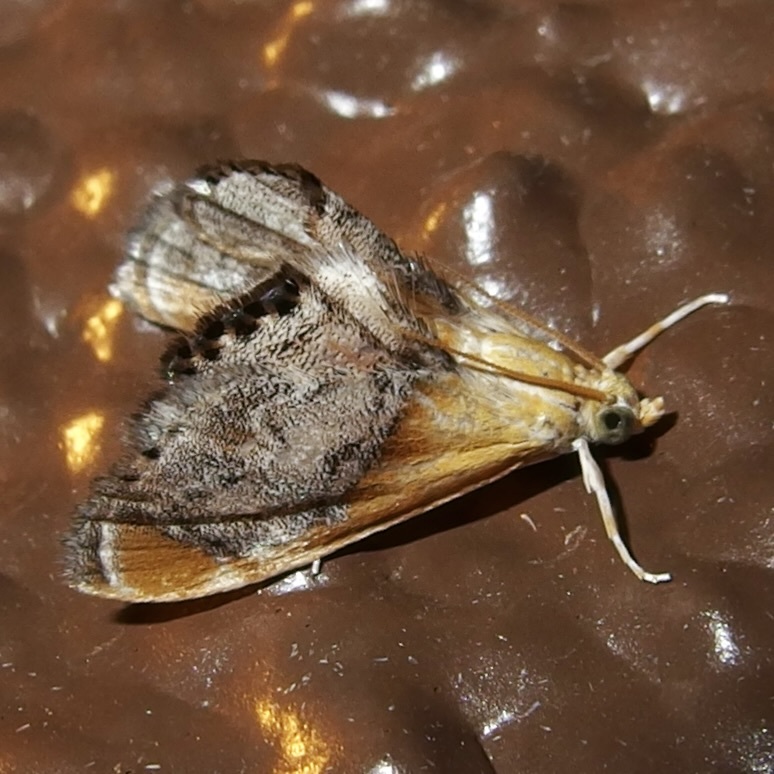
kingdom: Animalia
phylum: Arthropoda
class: Insecta
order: Lepidoptera
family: Crambidae
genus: Chalcoela
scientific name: Chalcoela iphitalis
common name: Sooty-winged chalcoela moth
